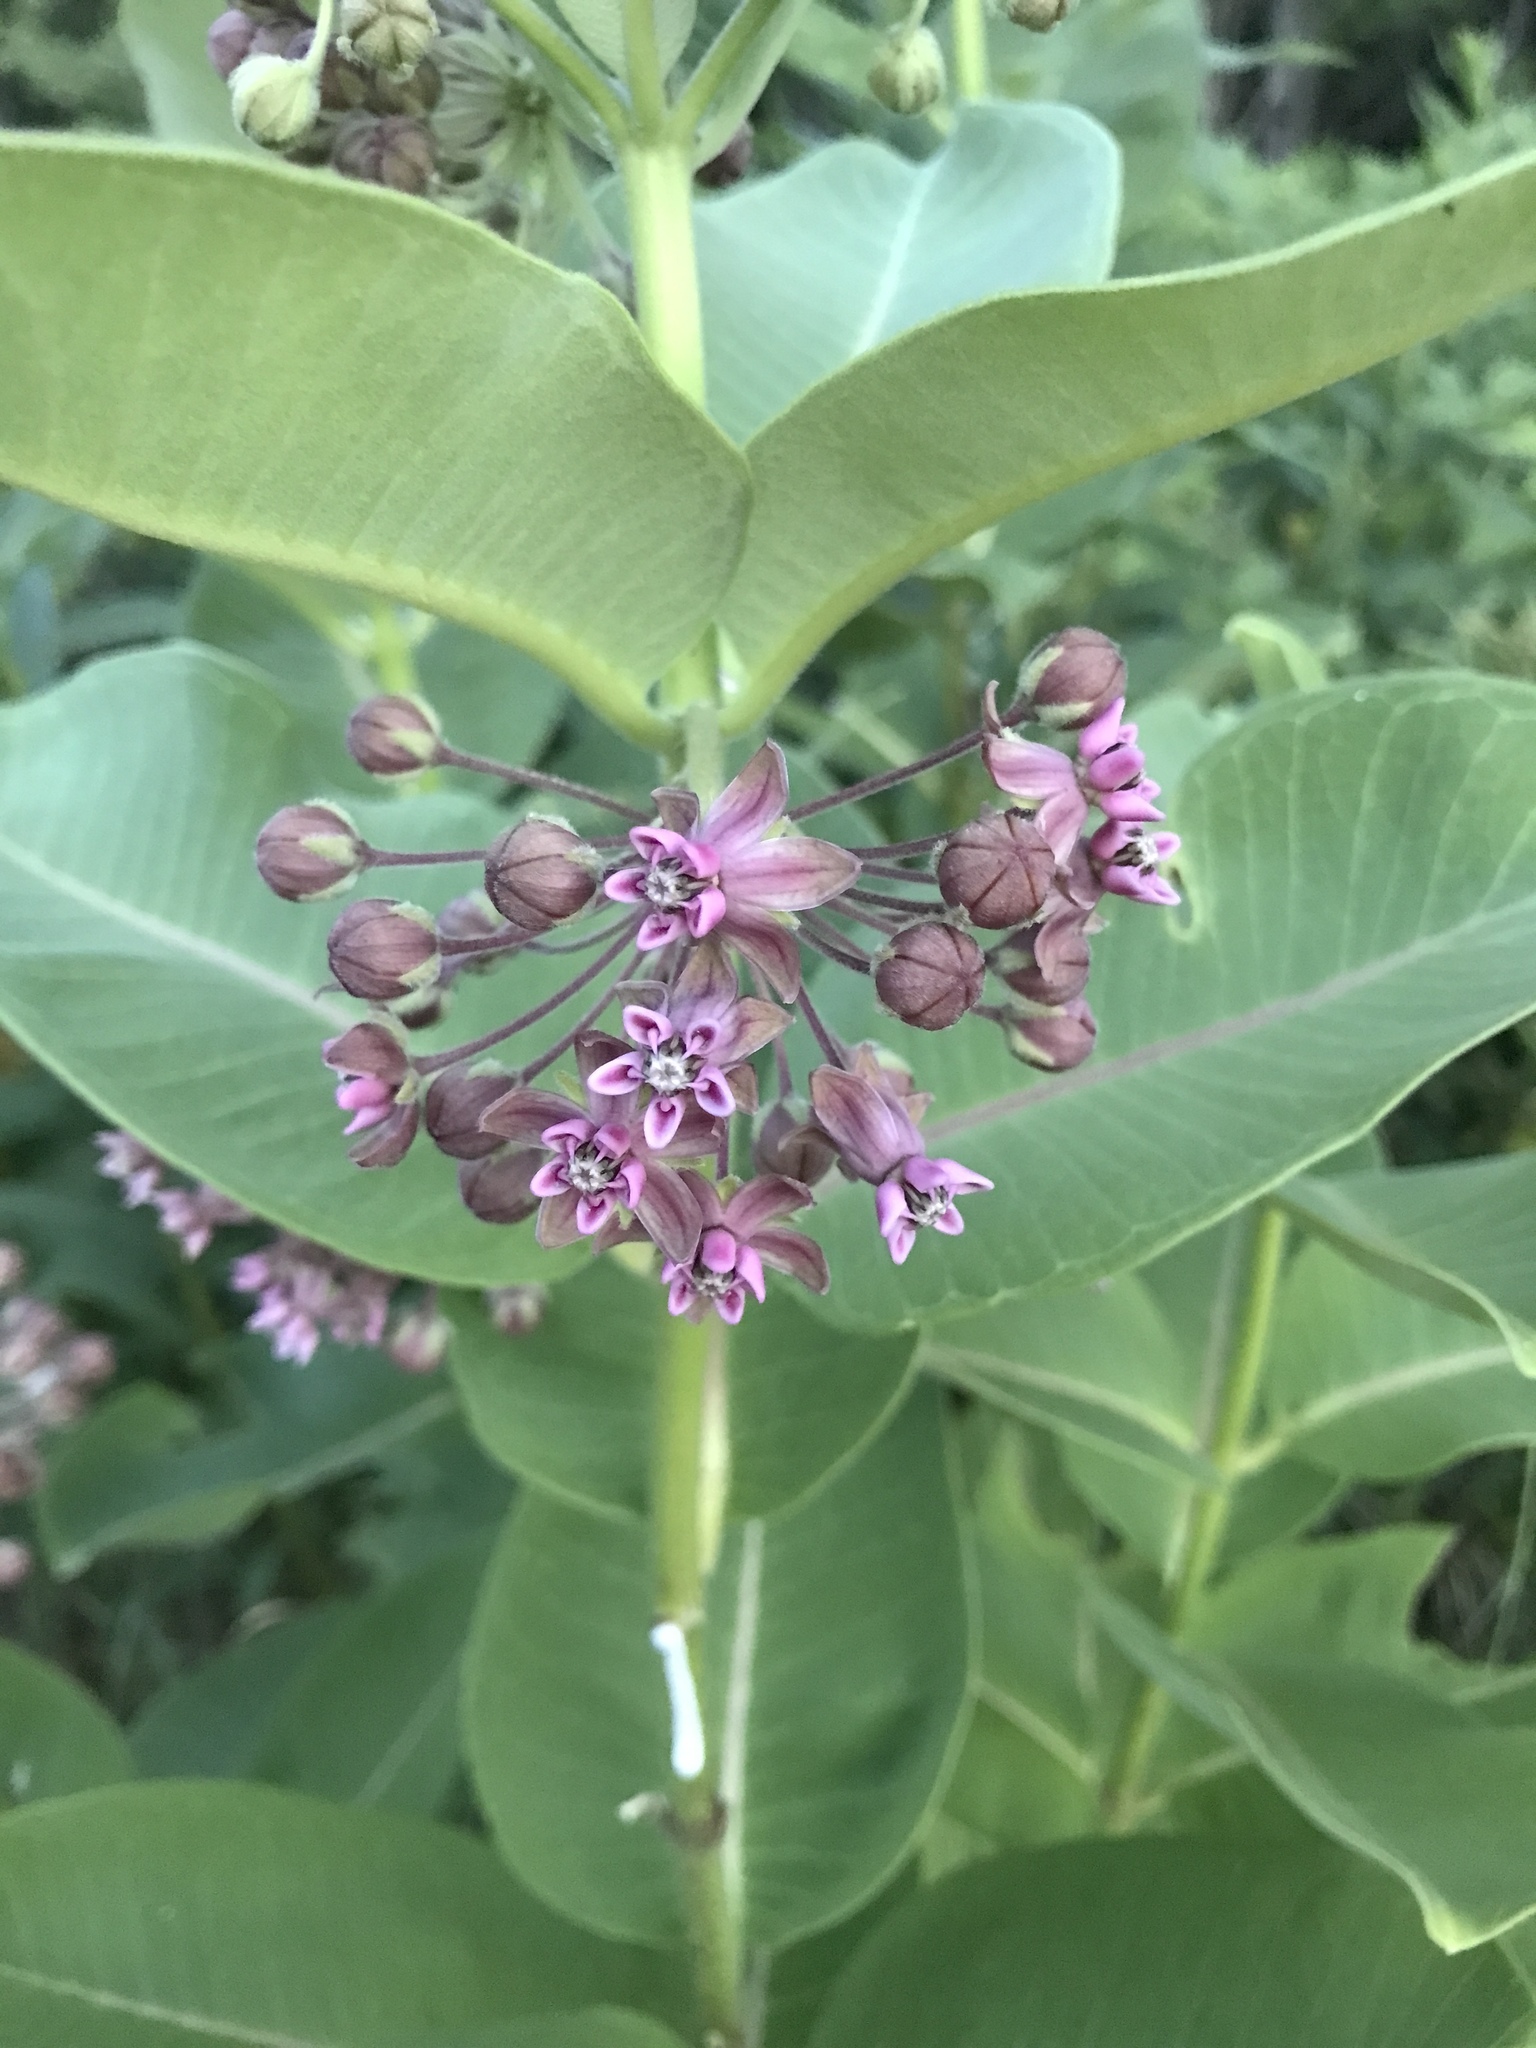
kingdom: Plantae
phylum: Tracheophyta
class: Magnoliopsida
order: Gentianales
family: Apocynaceae
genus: Asclepias
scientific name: Asclepias syriaca
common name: Common milkweed
